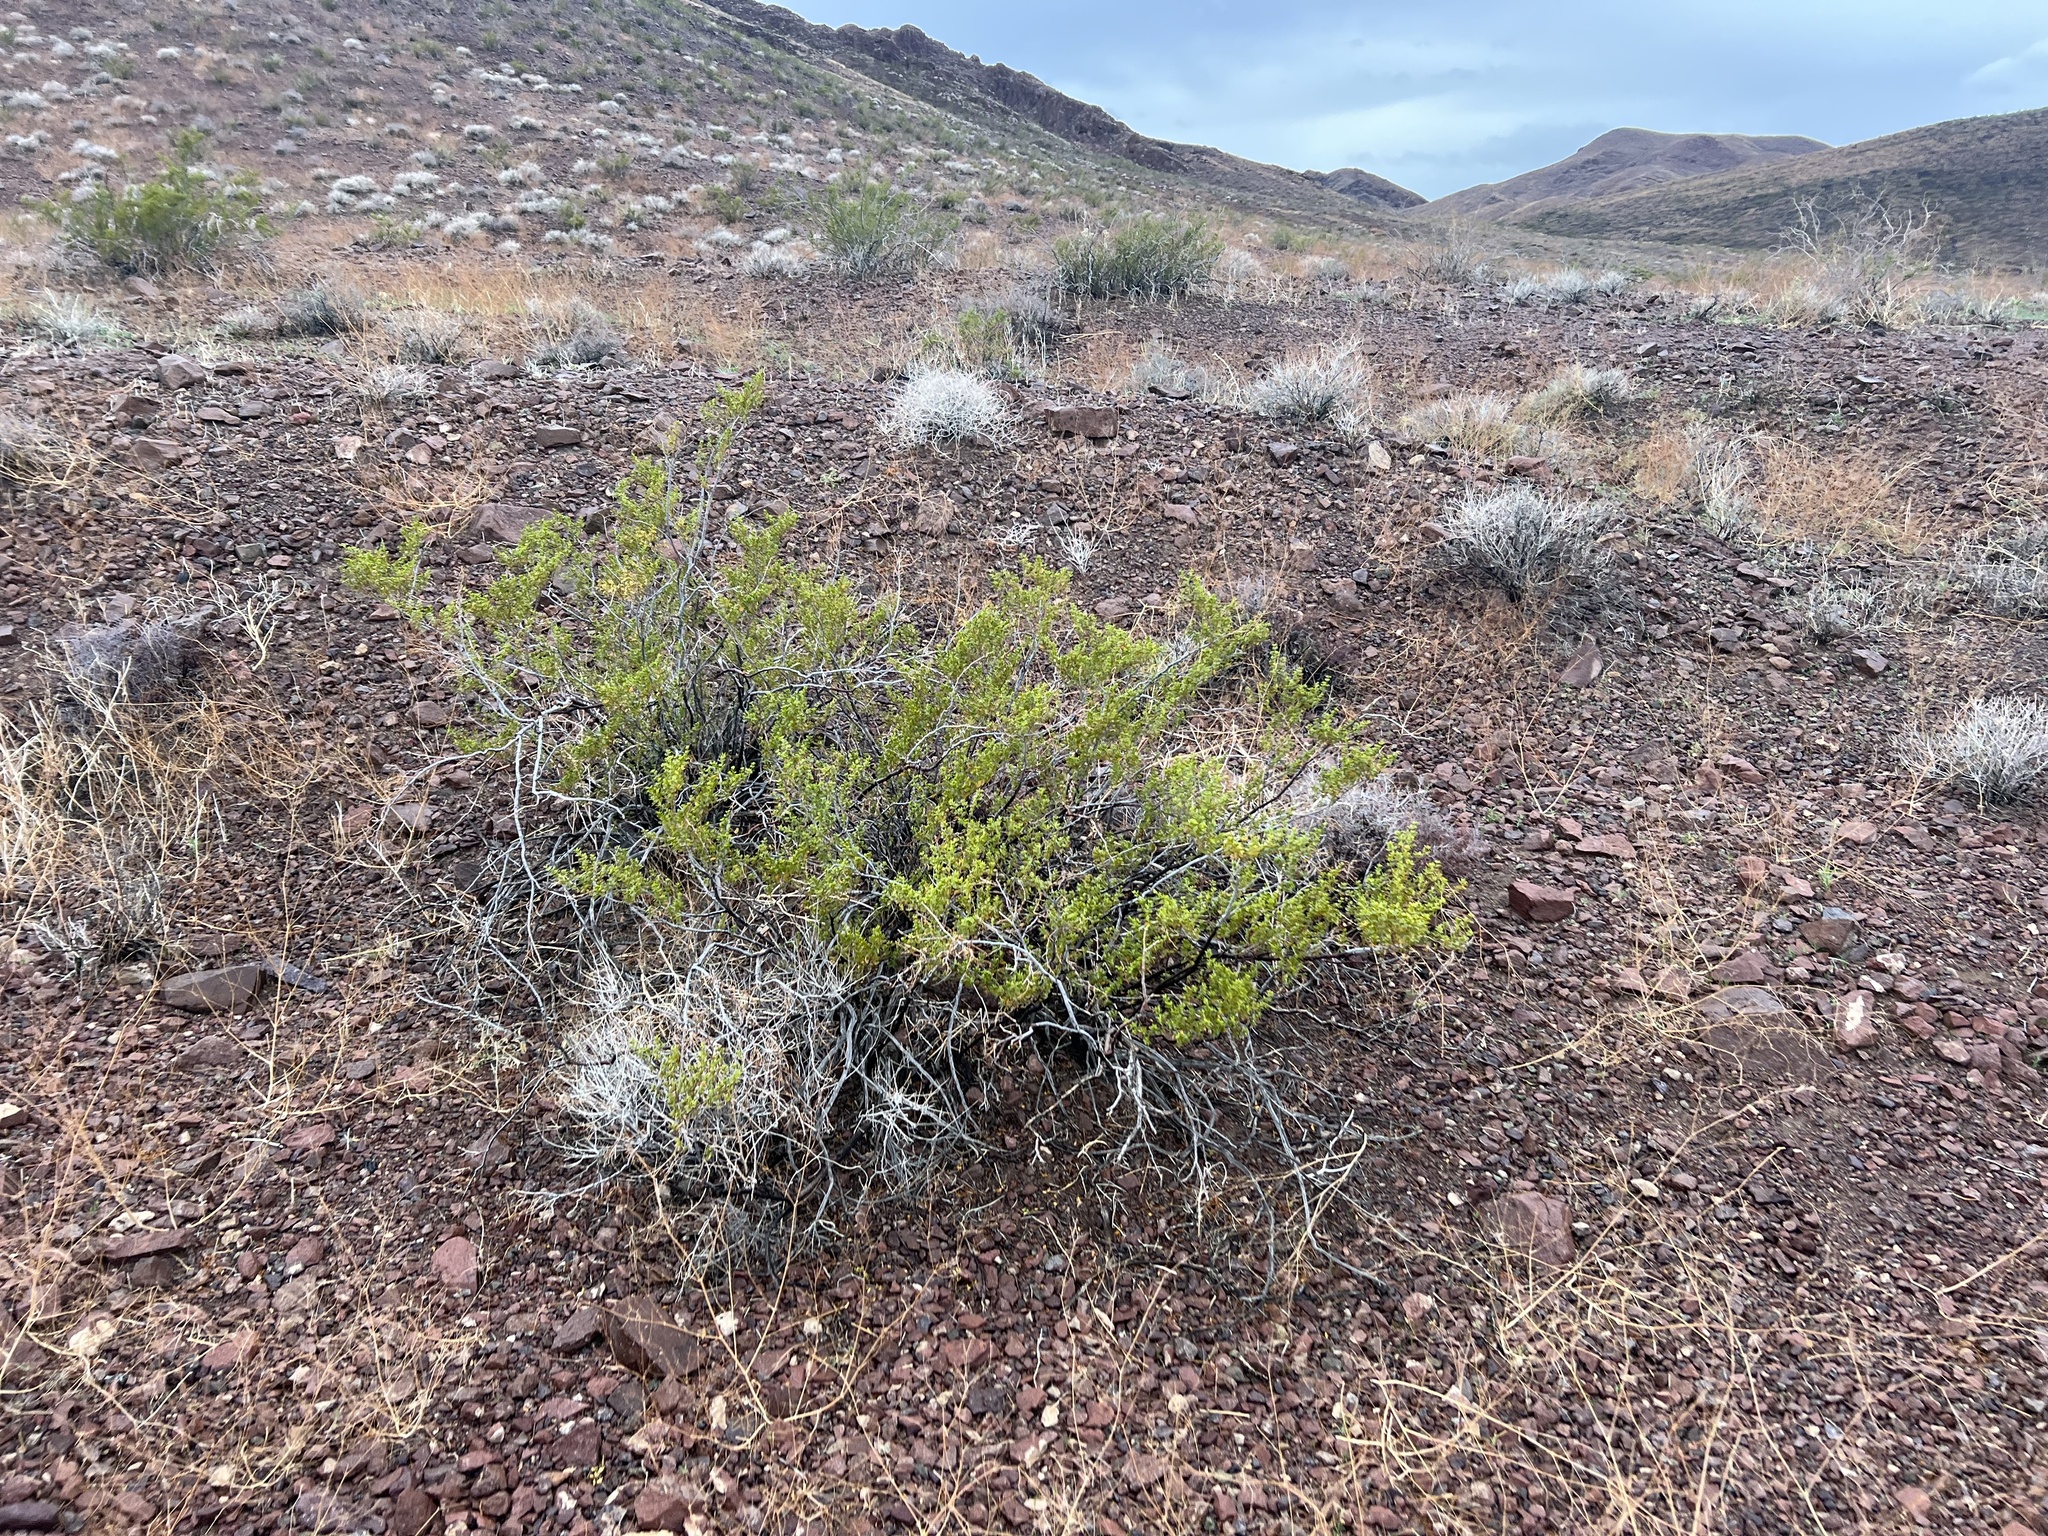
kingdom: Plantae
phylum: Tracheophyta
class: Magnoliopsida
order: Zygophyllales
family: Zygophyllaceae
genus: Larrea
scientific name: Larrea tridentata
